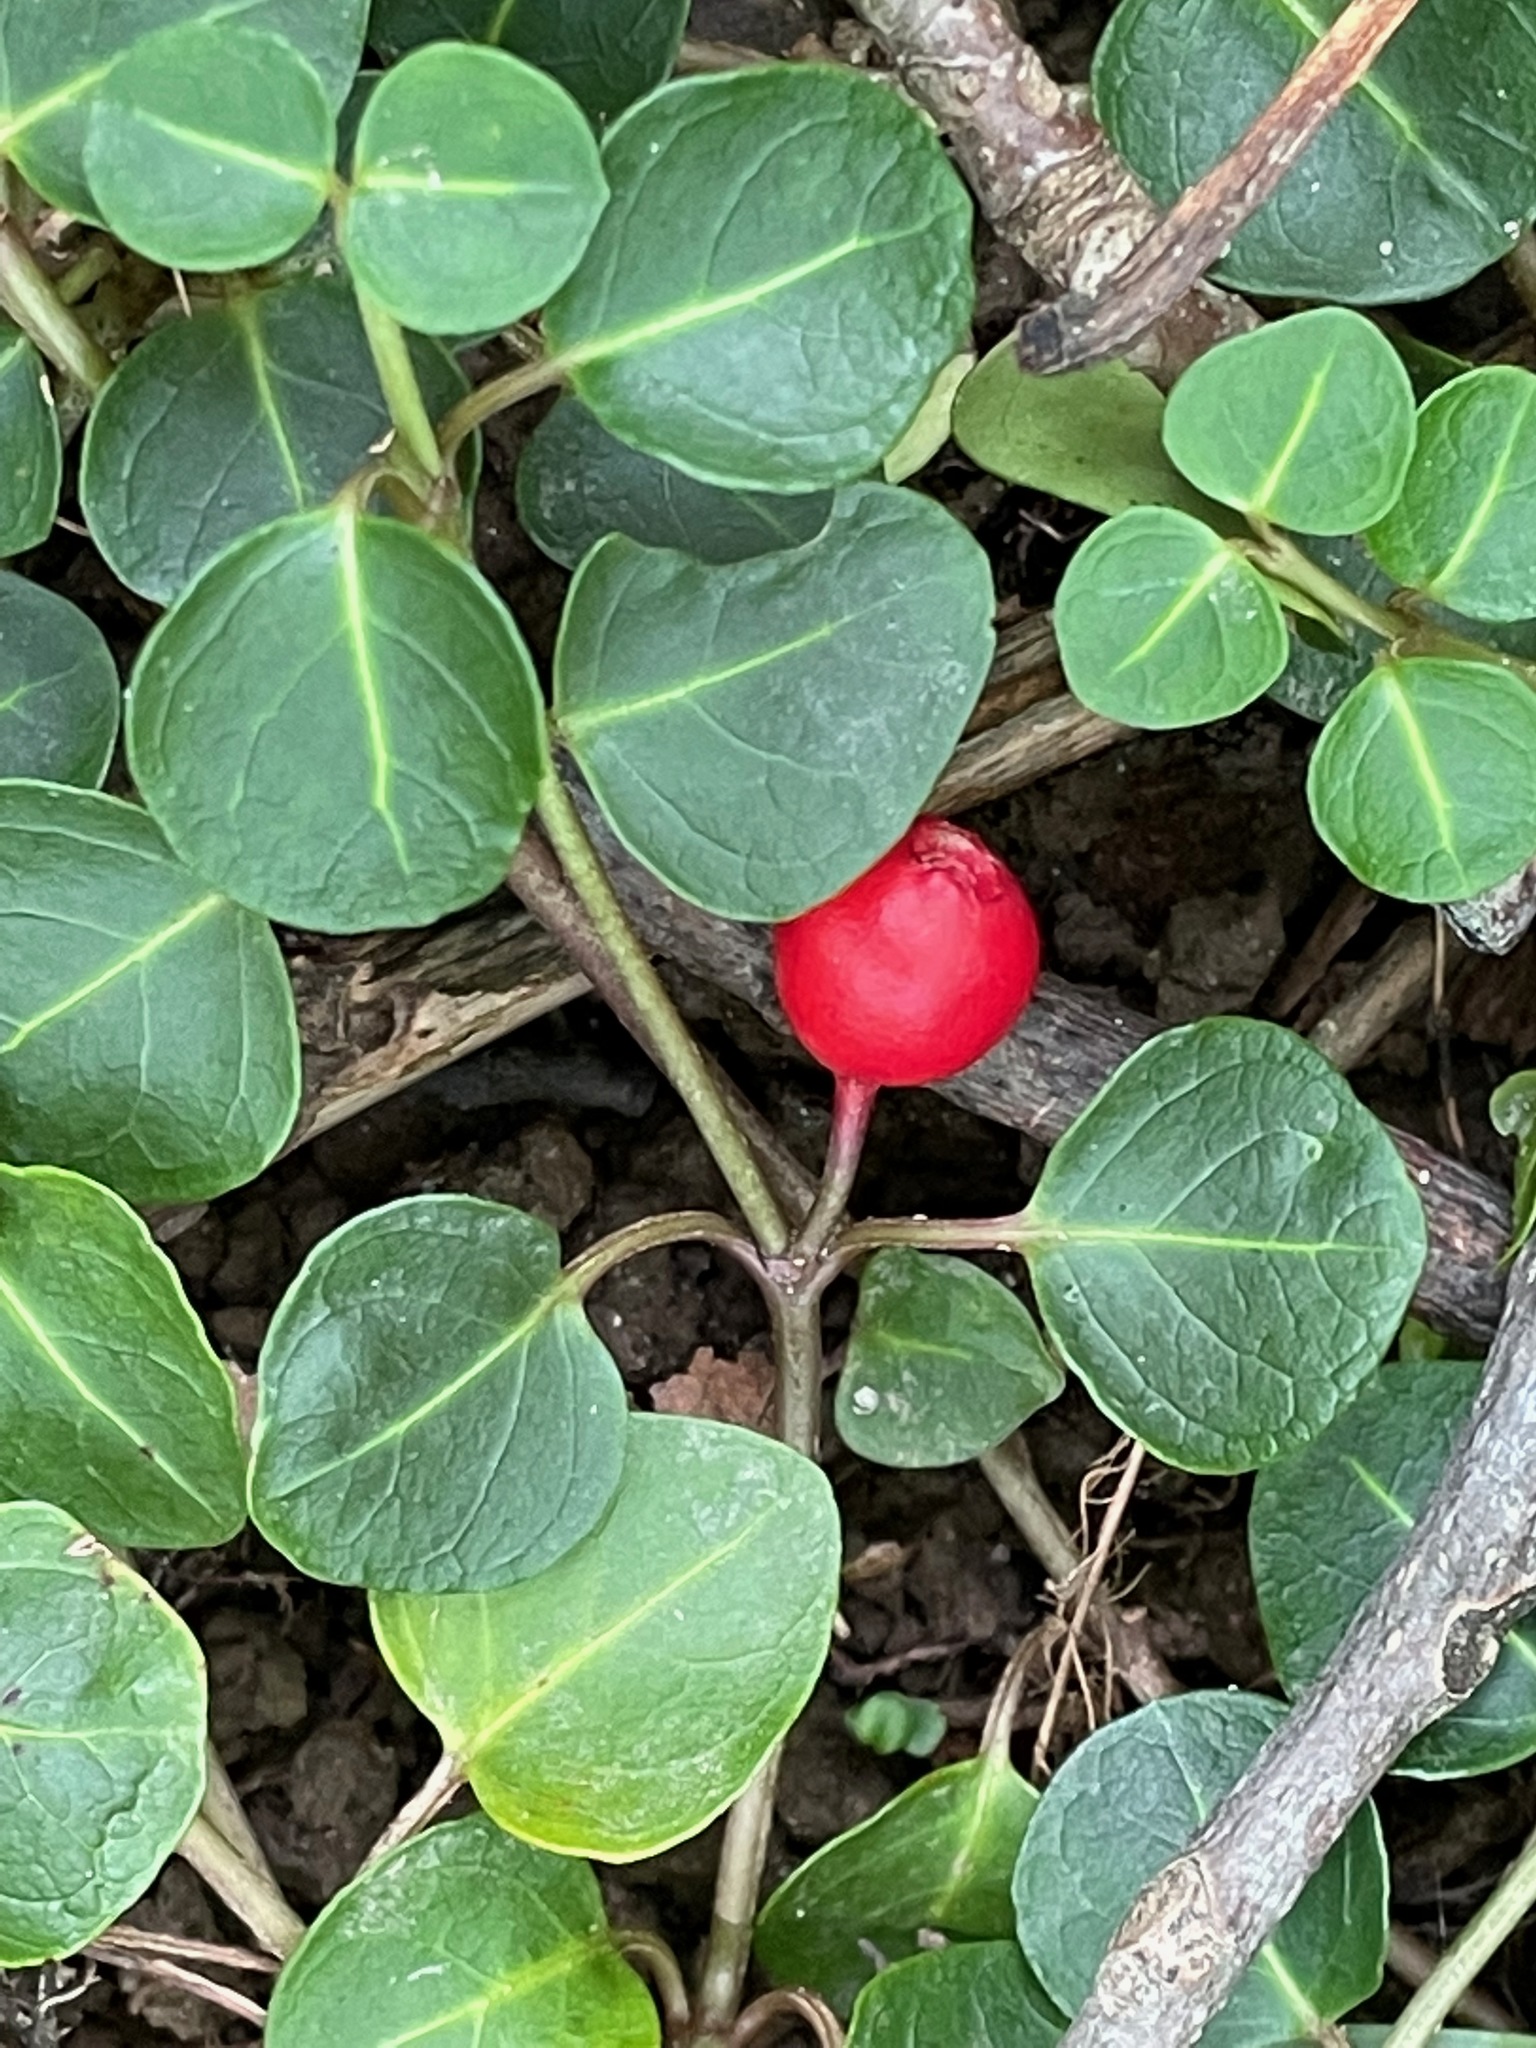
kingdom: Plantae
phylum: Tracheophyta
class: Magnoliopsida
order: Gentianales
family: Rubiaceae
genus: Mitchella
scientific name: Mitchella repens
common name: Partridge-berry
